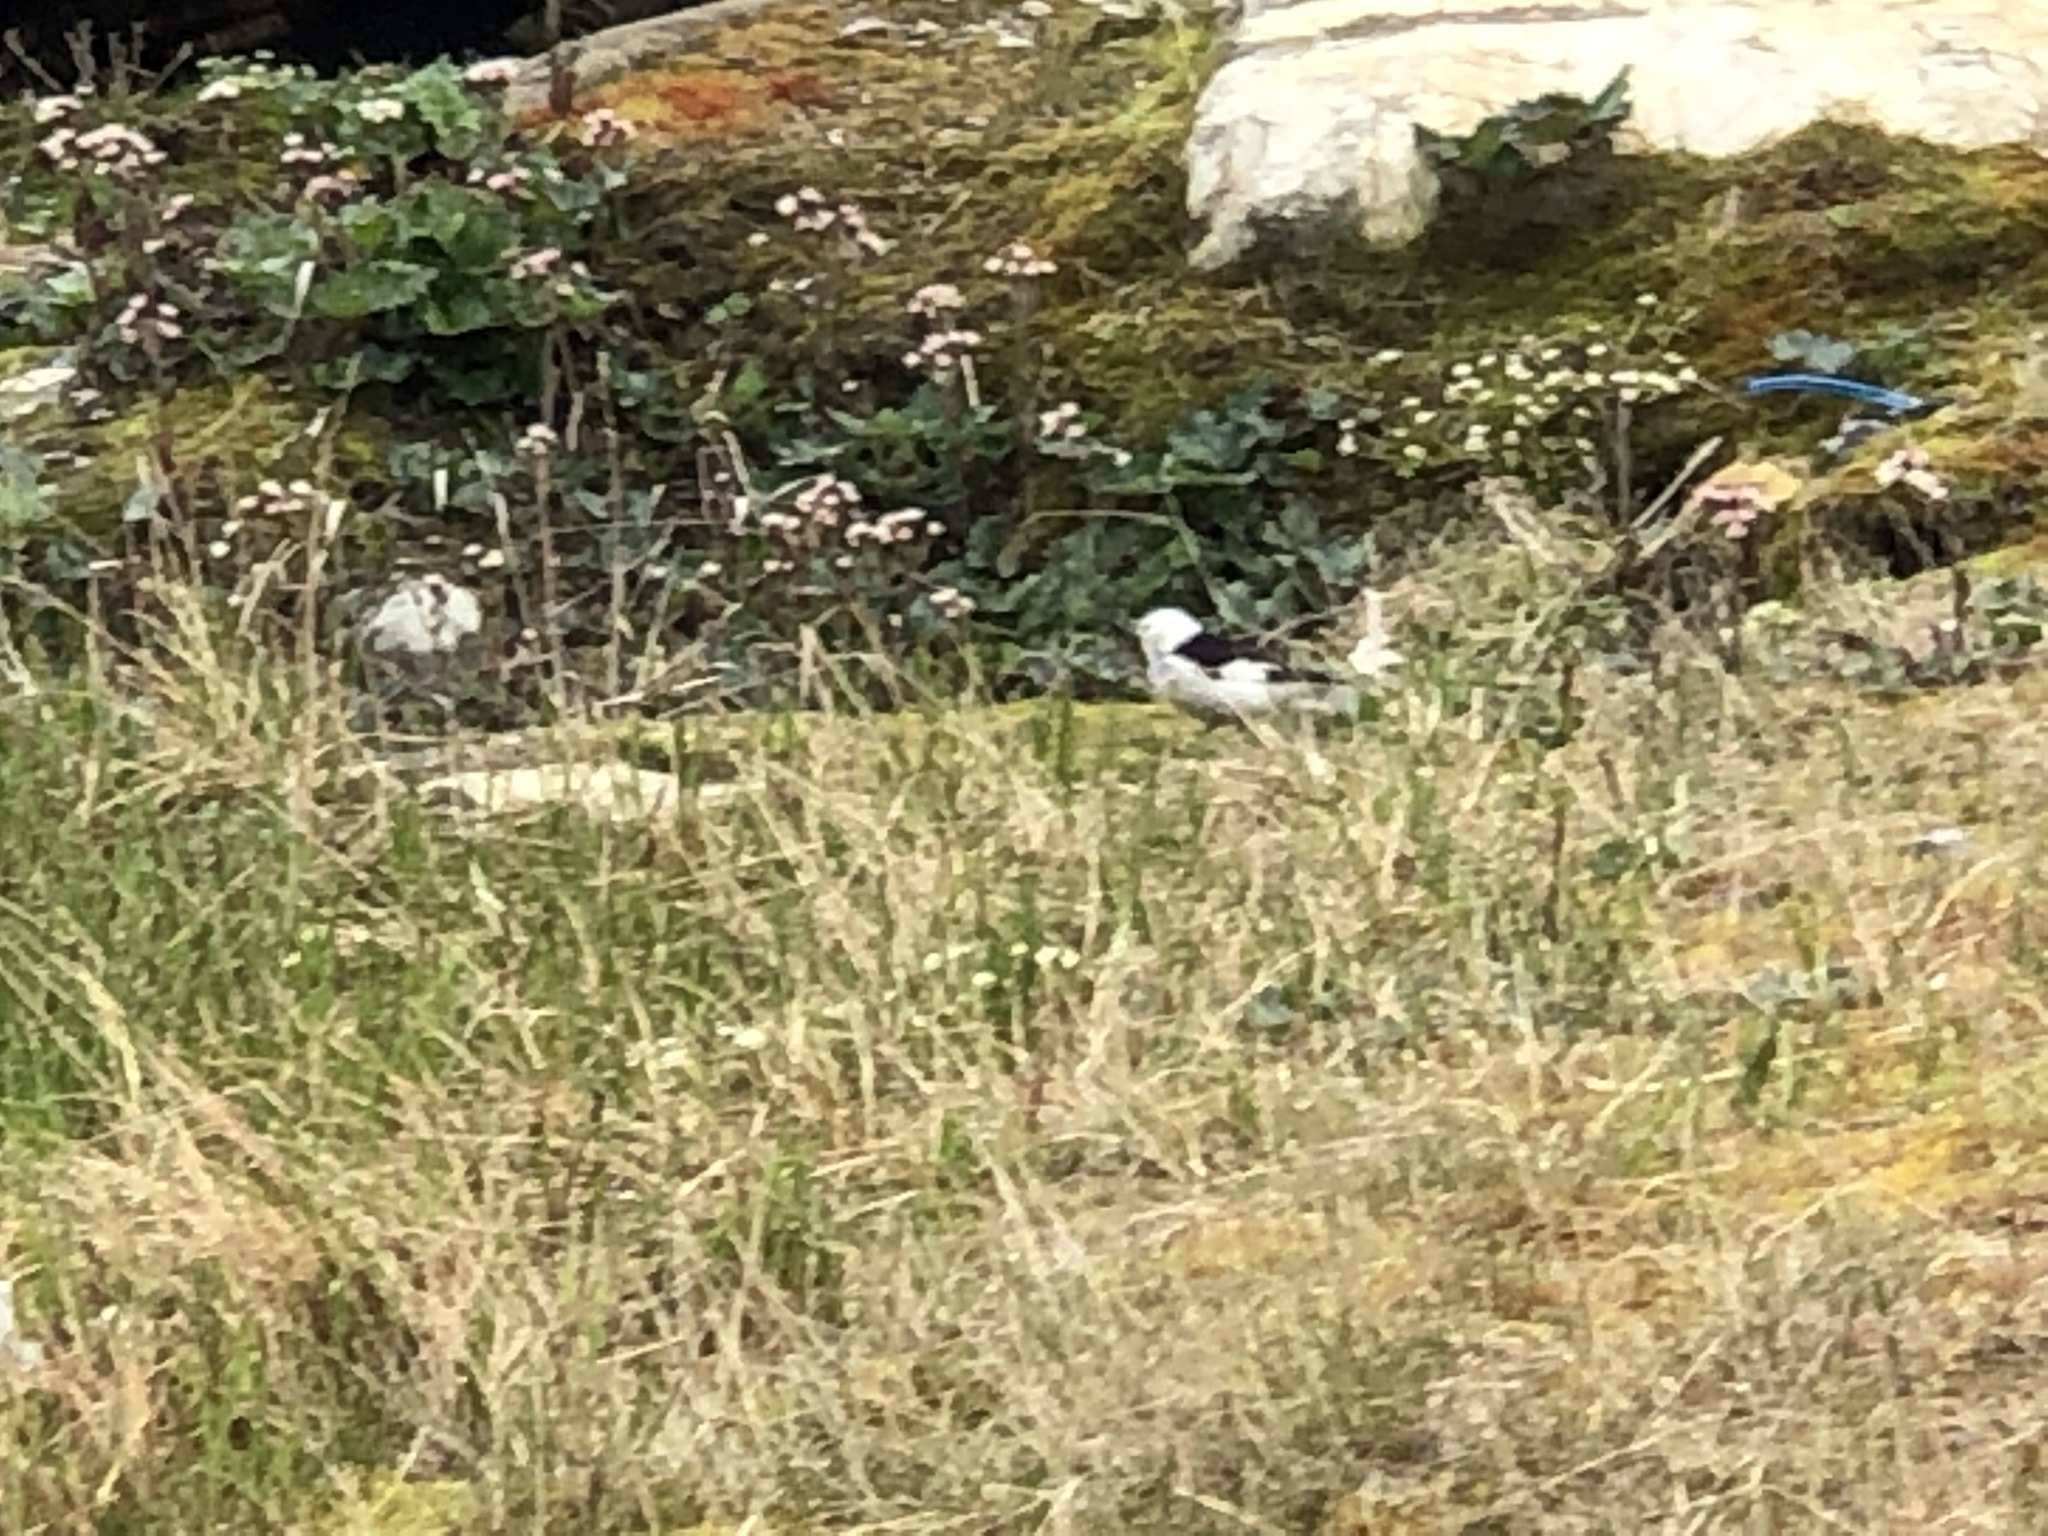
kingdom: Animalia
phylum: Chordata
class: Aves
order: Passeriformes
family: Calcariidae
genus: Plectrophenax
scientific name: Plectrophenax nivalis
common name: Snow bunting
